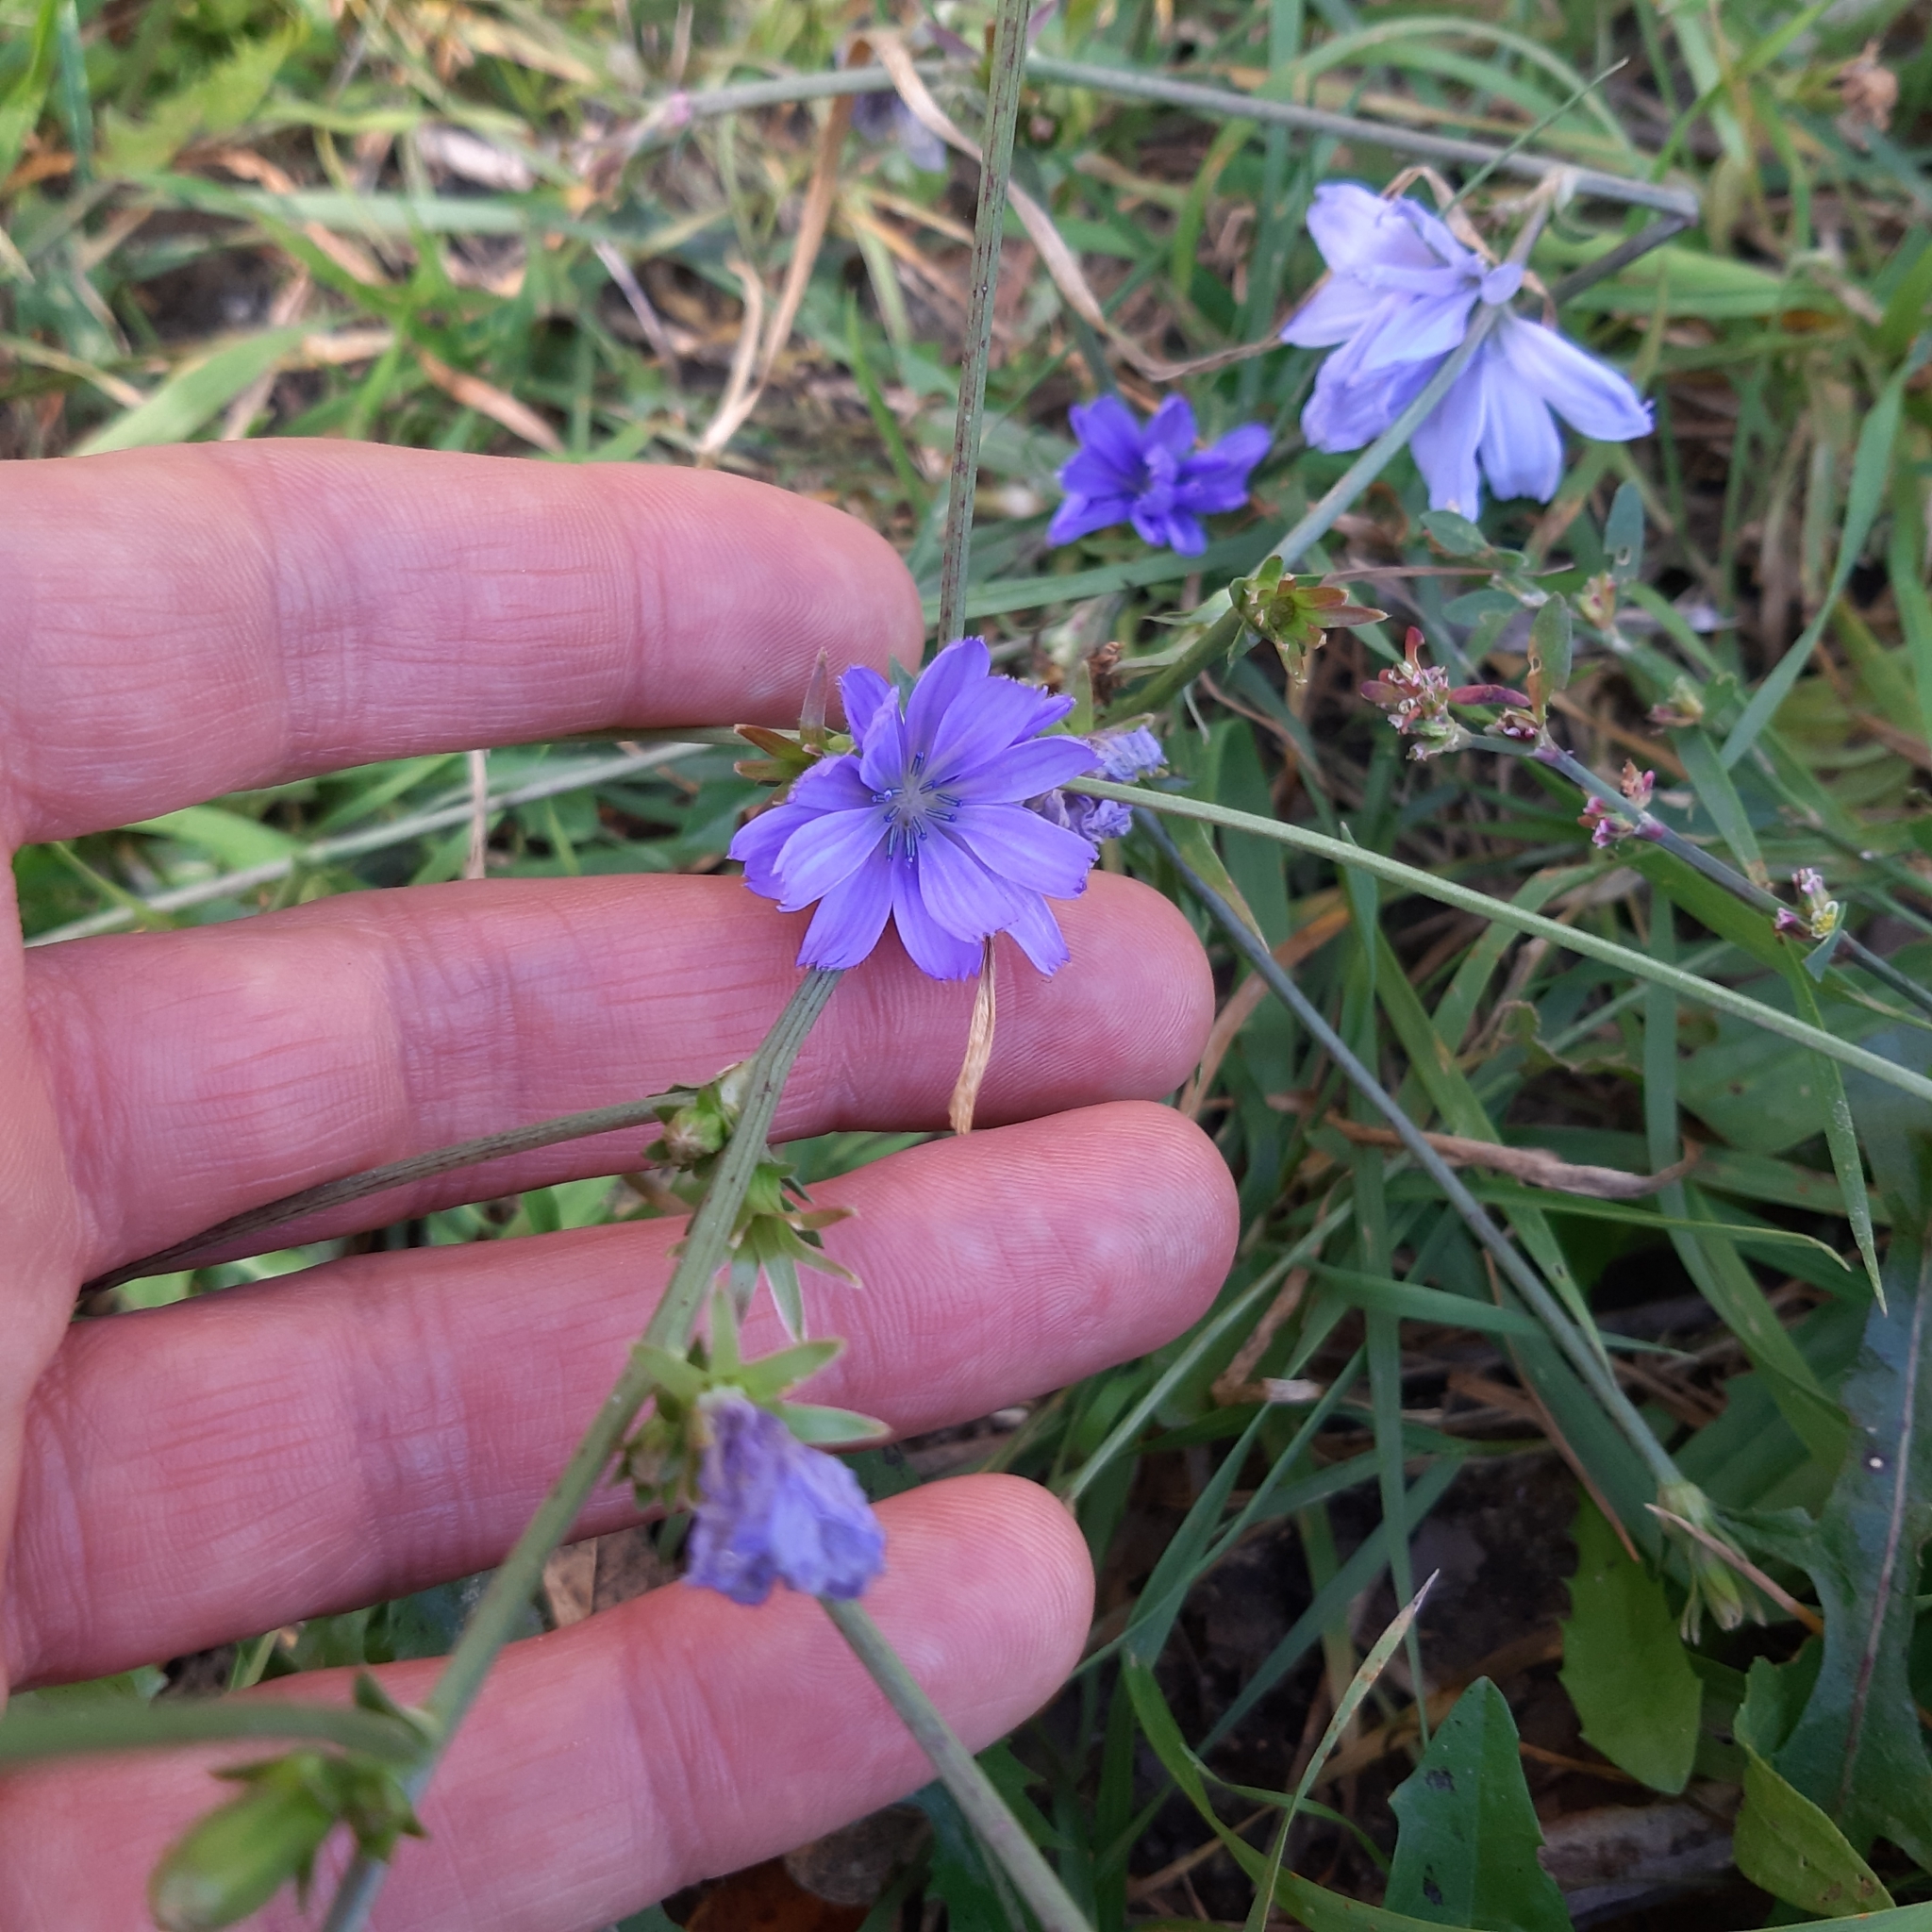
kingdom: Plantae
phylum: Tracheophyta
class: Magnoliopsida
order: Asterales
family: Asteraceae
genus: Cichorium
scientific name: Cichorium intybus
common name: Chicory
